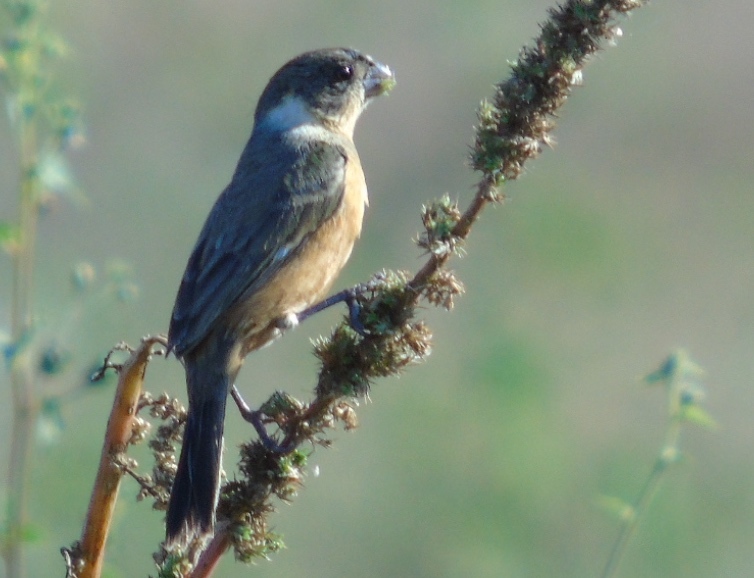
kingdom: Animalia
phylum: Chordata
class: Aves
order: Passeriformes
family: Thraupidae
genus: Sporophila
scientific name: Sporophila torqueola
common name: White-collared seedeater
